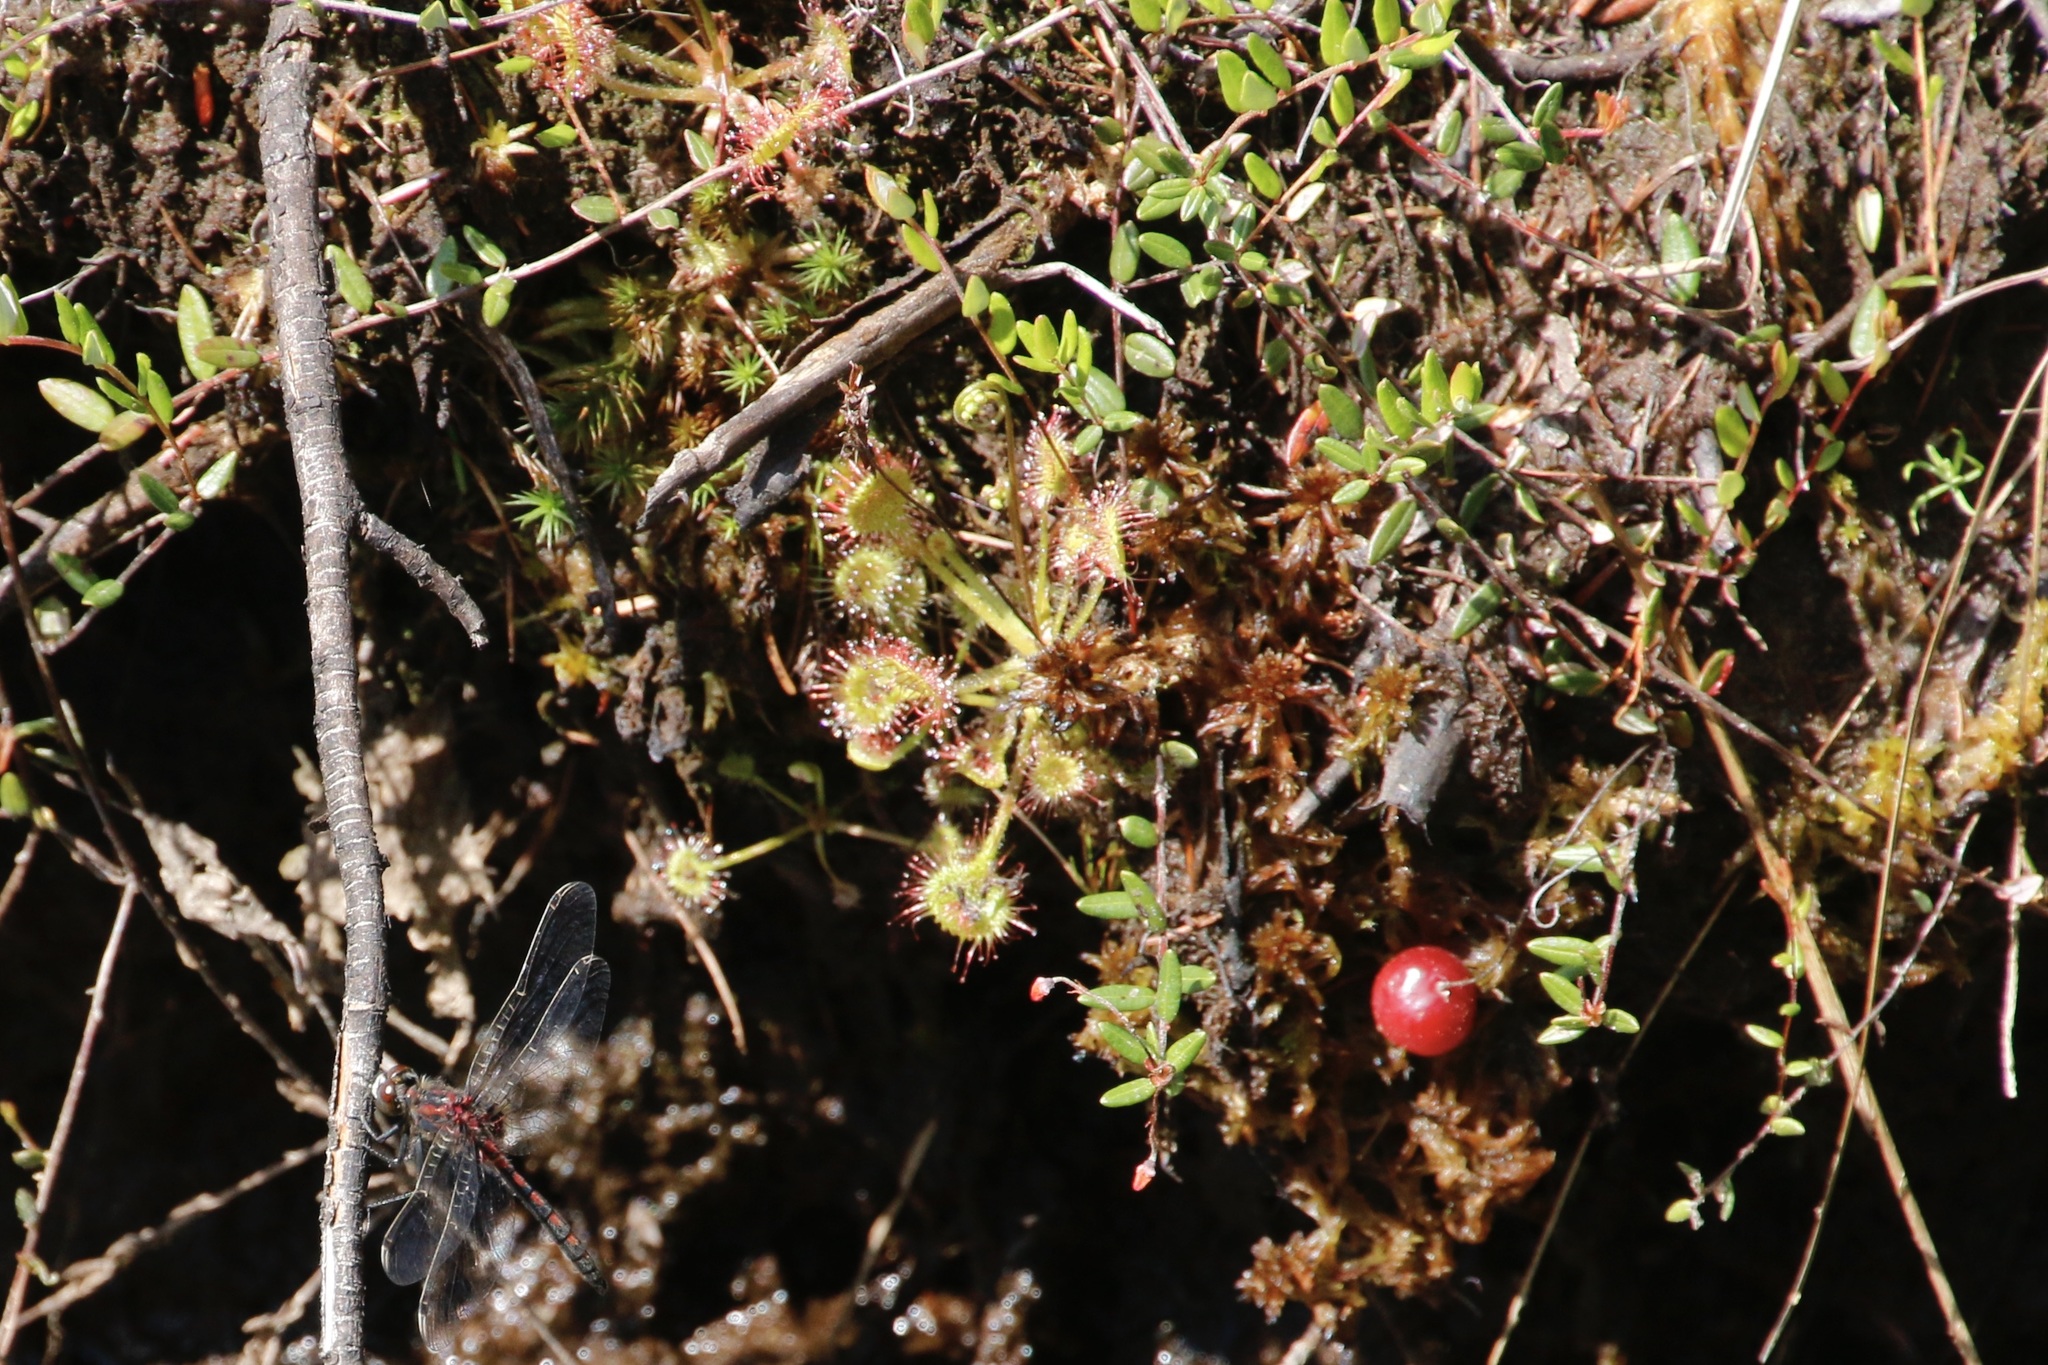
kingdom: Plantae
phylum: Tracheophyta
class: Magnoliopsida
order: Caryophyllales
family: Droseraceae
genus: Drosera
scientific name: Drosera rotundifolia
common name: Round-leaved sundew
